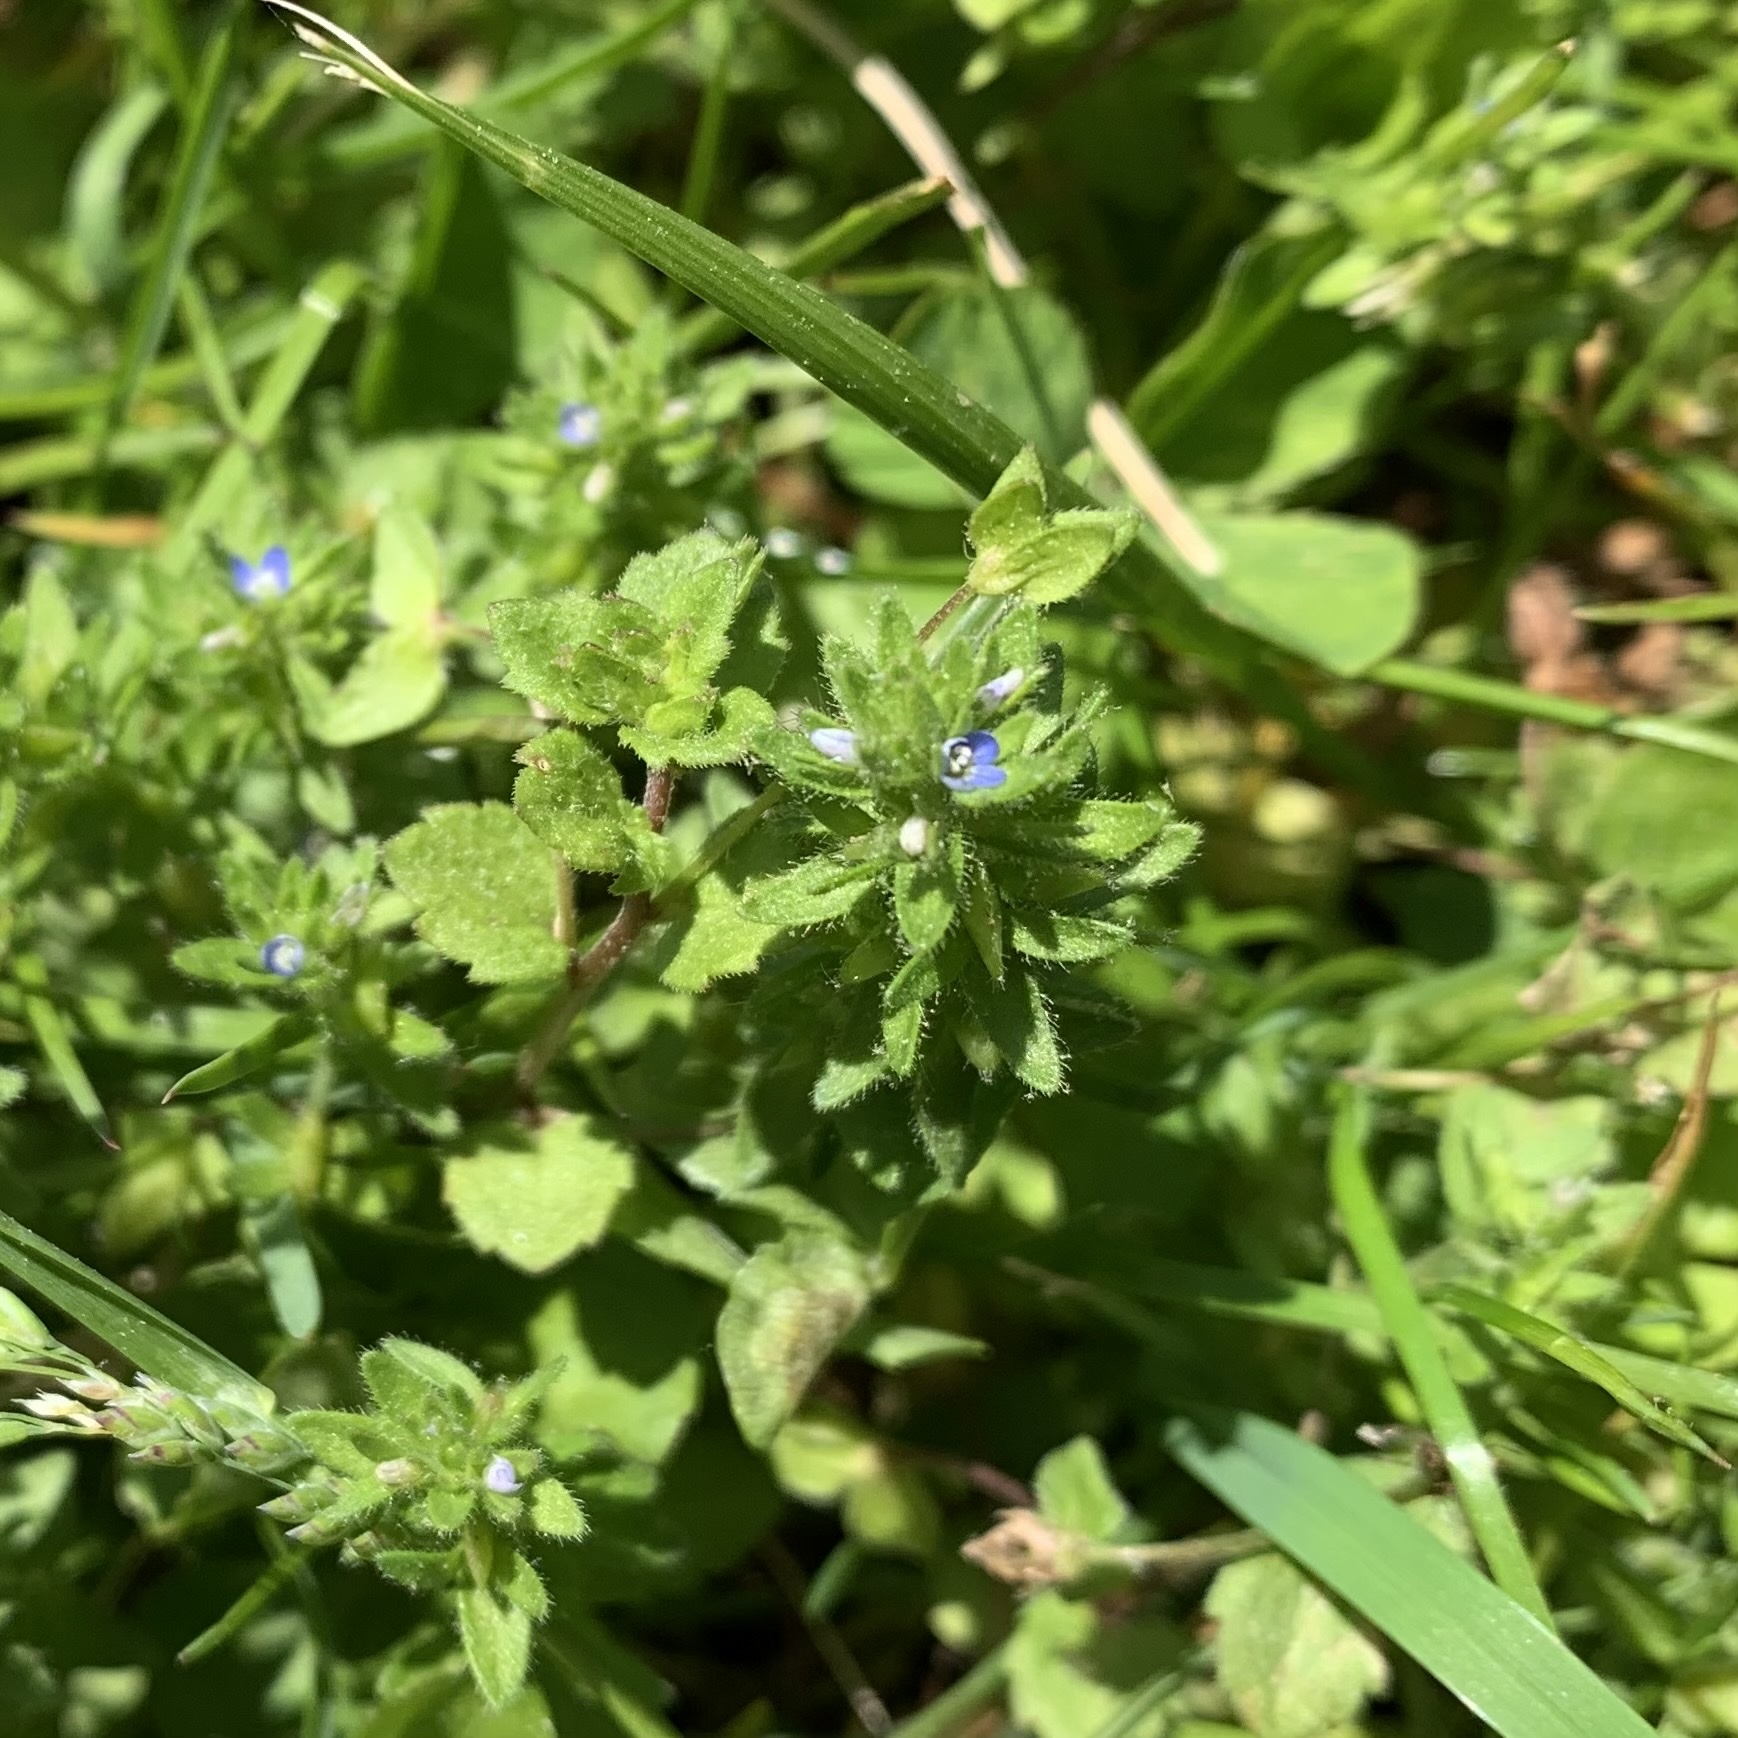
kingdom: Plantae
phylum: Tracheophyta
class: Magnoliopsida
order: Lamiales
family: Plantaginaceae
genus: Veronica
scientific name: Veronica arvensis
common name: Corn speedwell
